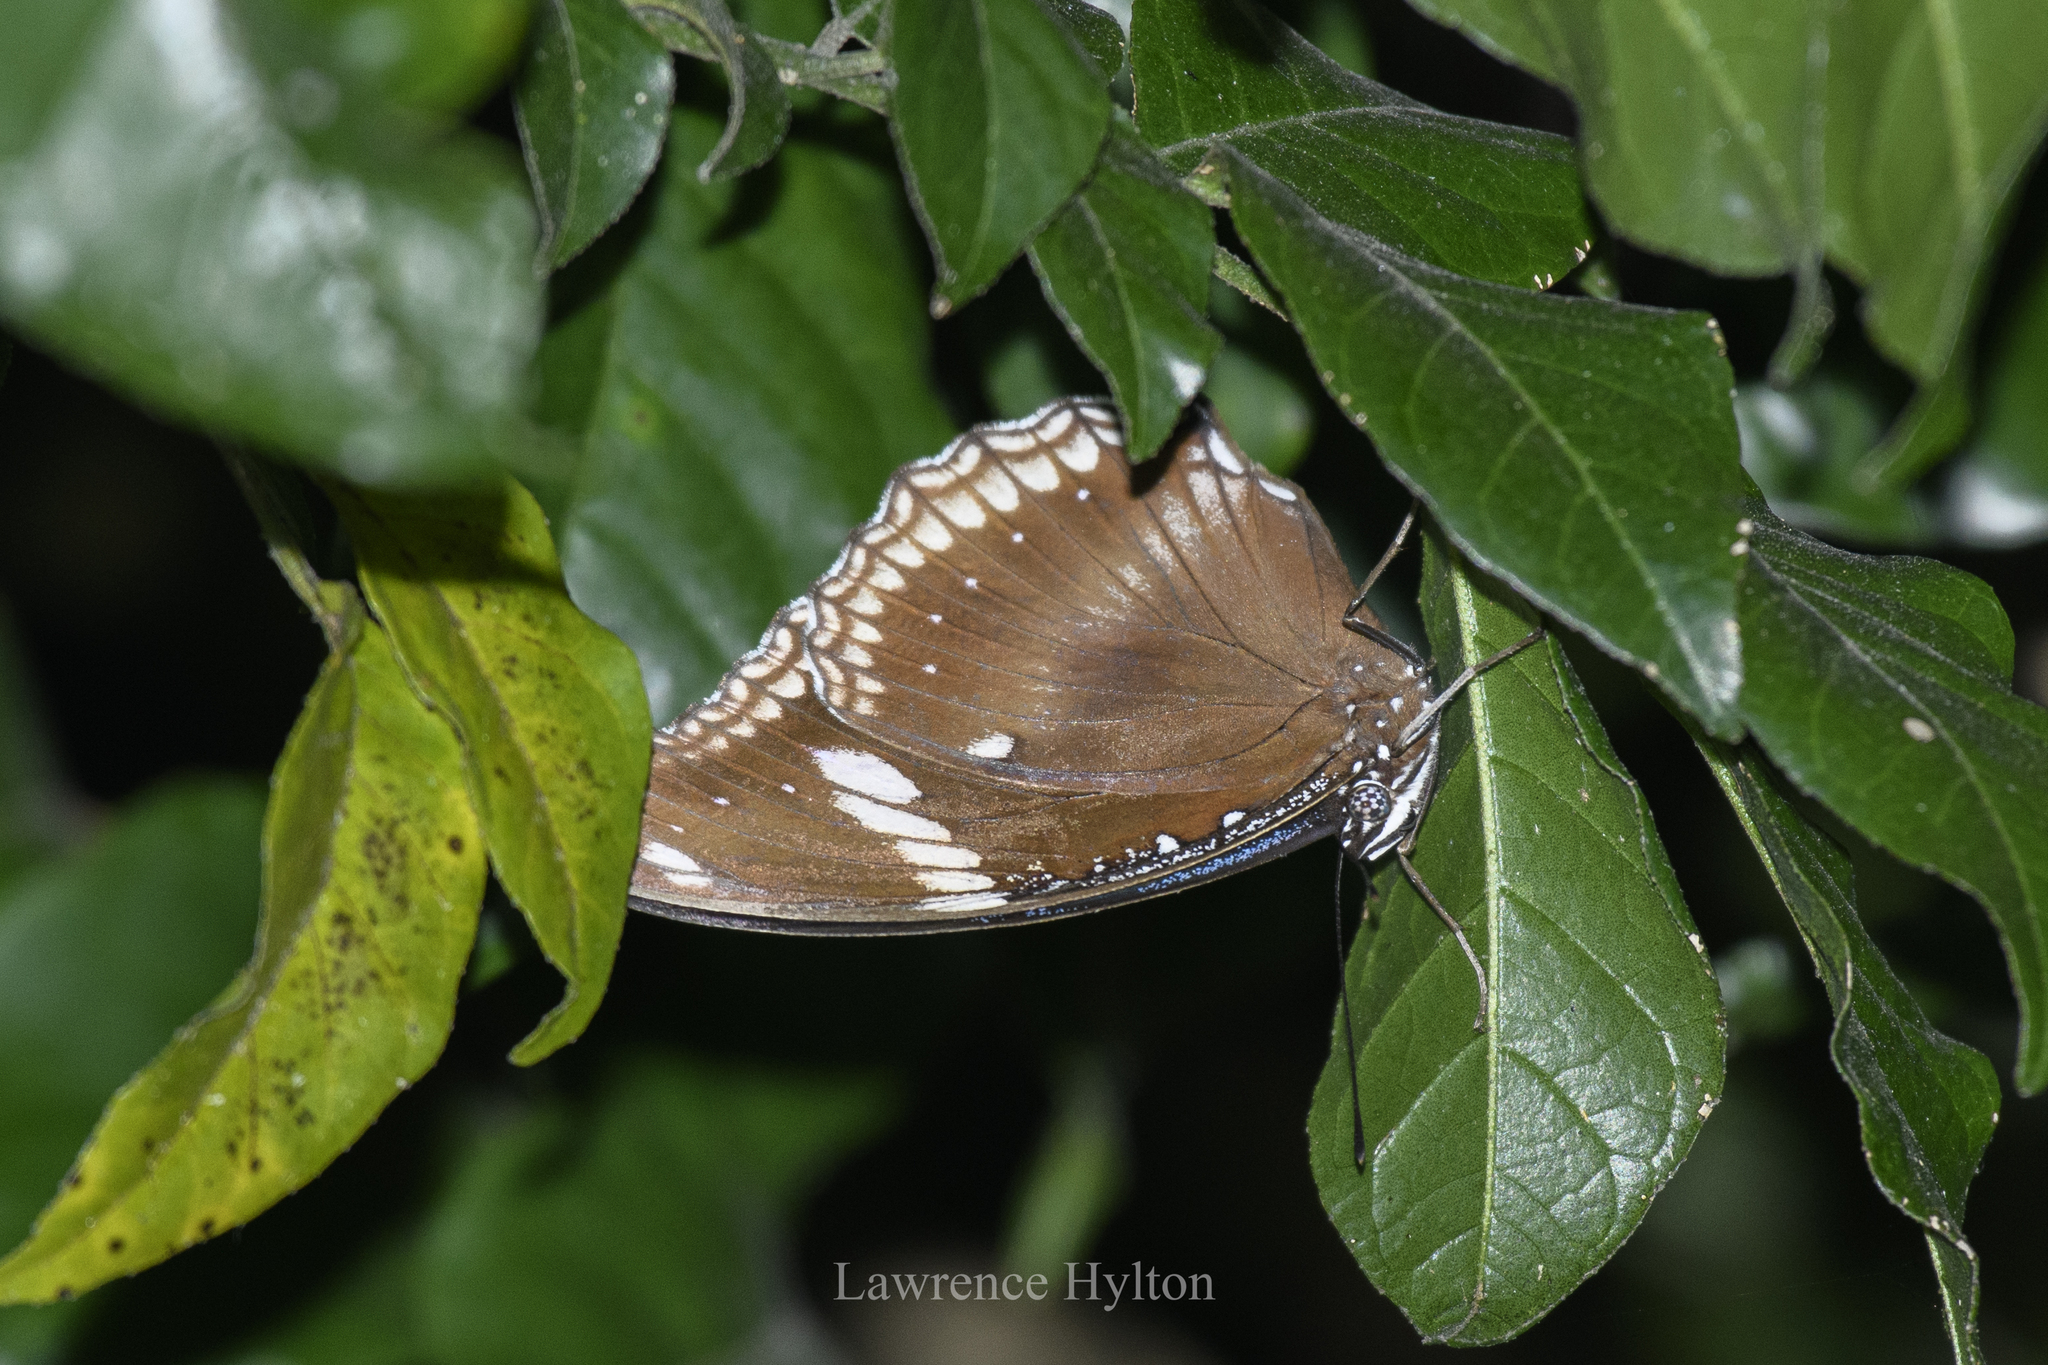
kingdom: Animalia
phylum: Arthropoda
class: Insecta
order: Lepidoptera
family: Nymphalidae
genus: Hypolimnas
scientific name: Hypolimnas bolina
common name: Great eggfly
